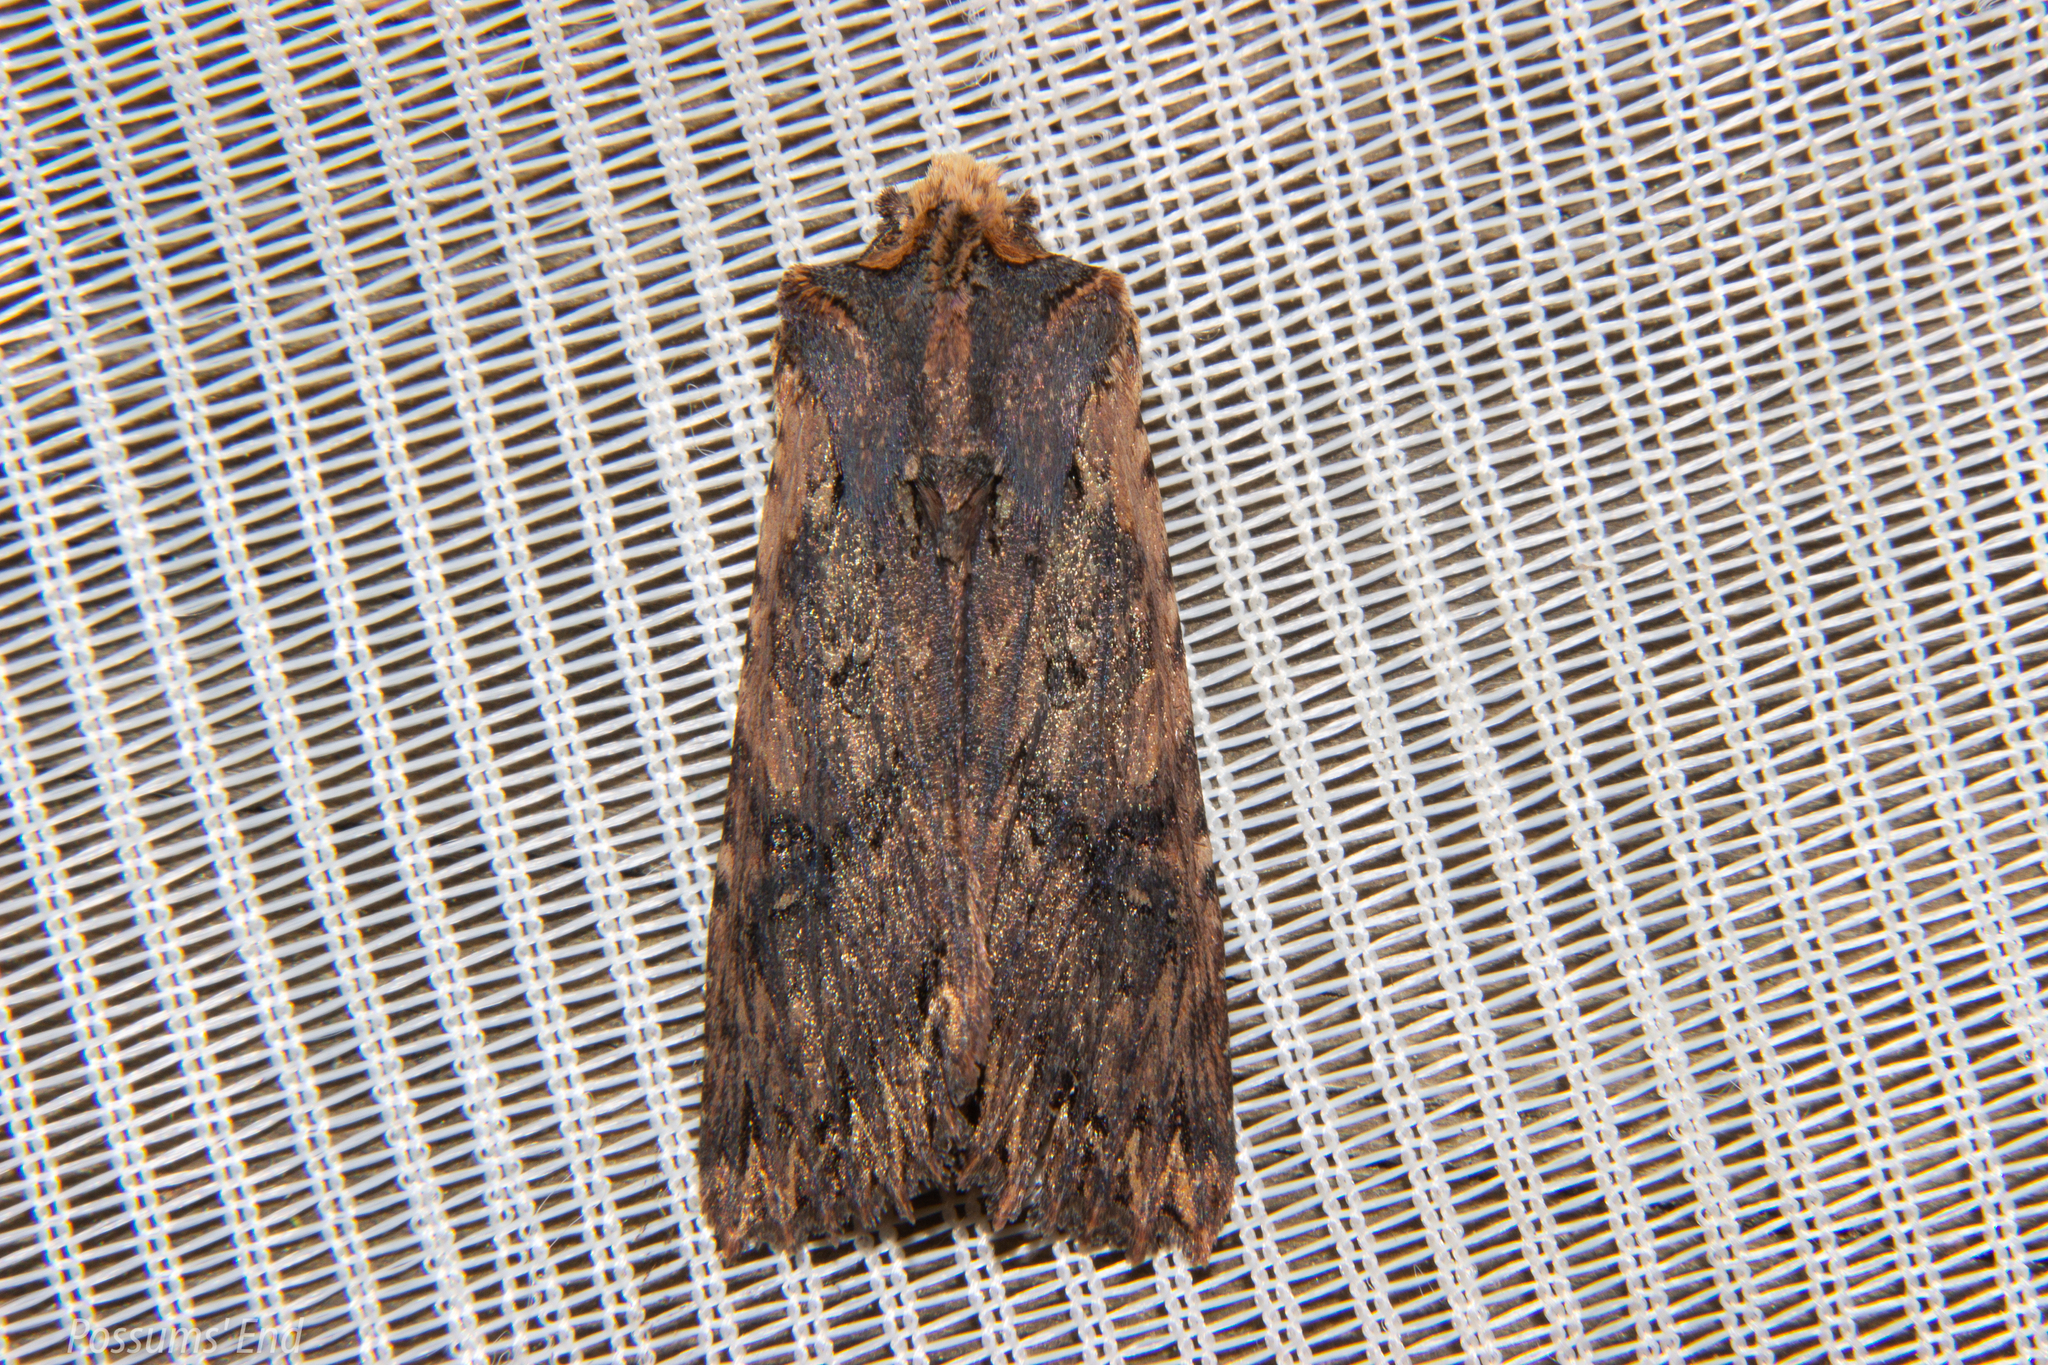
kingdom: Animalia
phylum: Arthropoda
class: Insecta
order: Lepidoptera
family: Noctuidae
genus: Meterana
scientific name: Meterana alcyone
